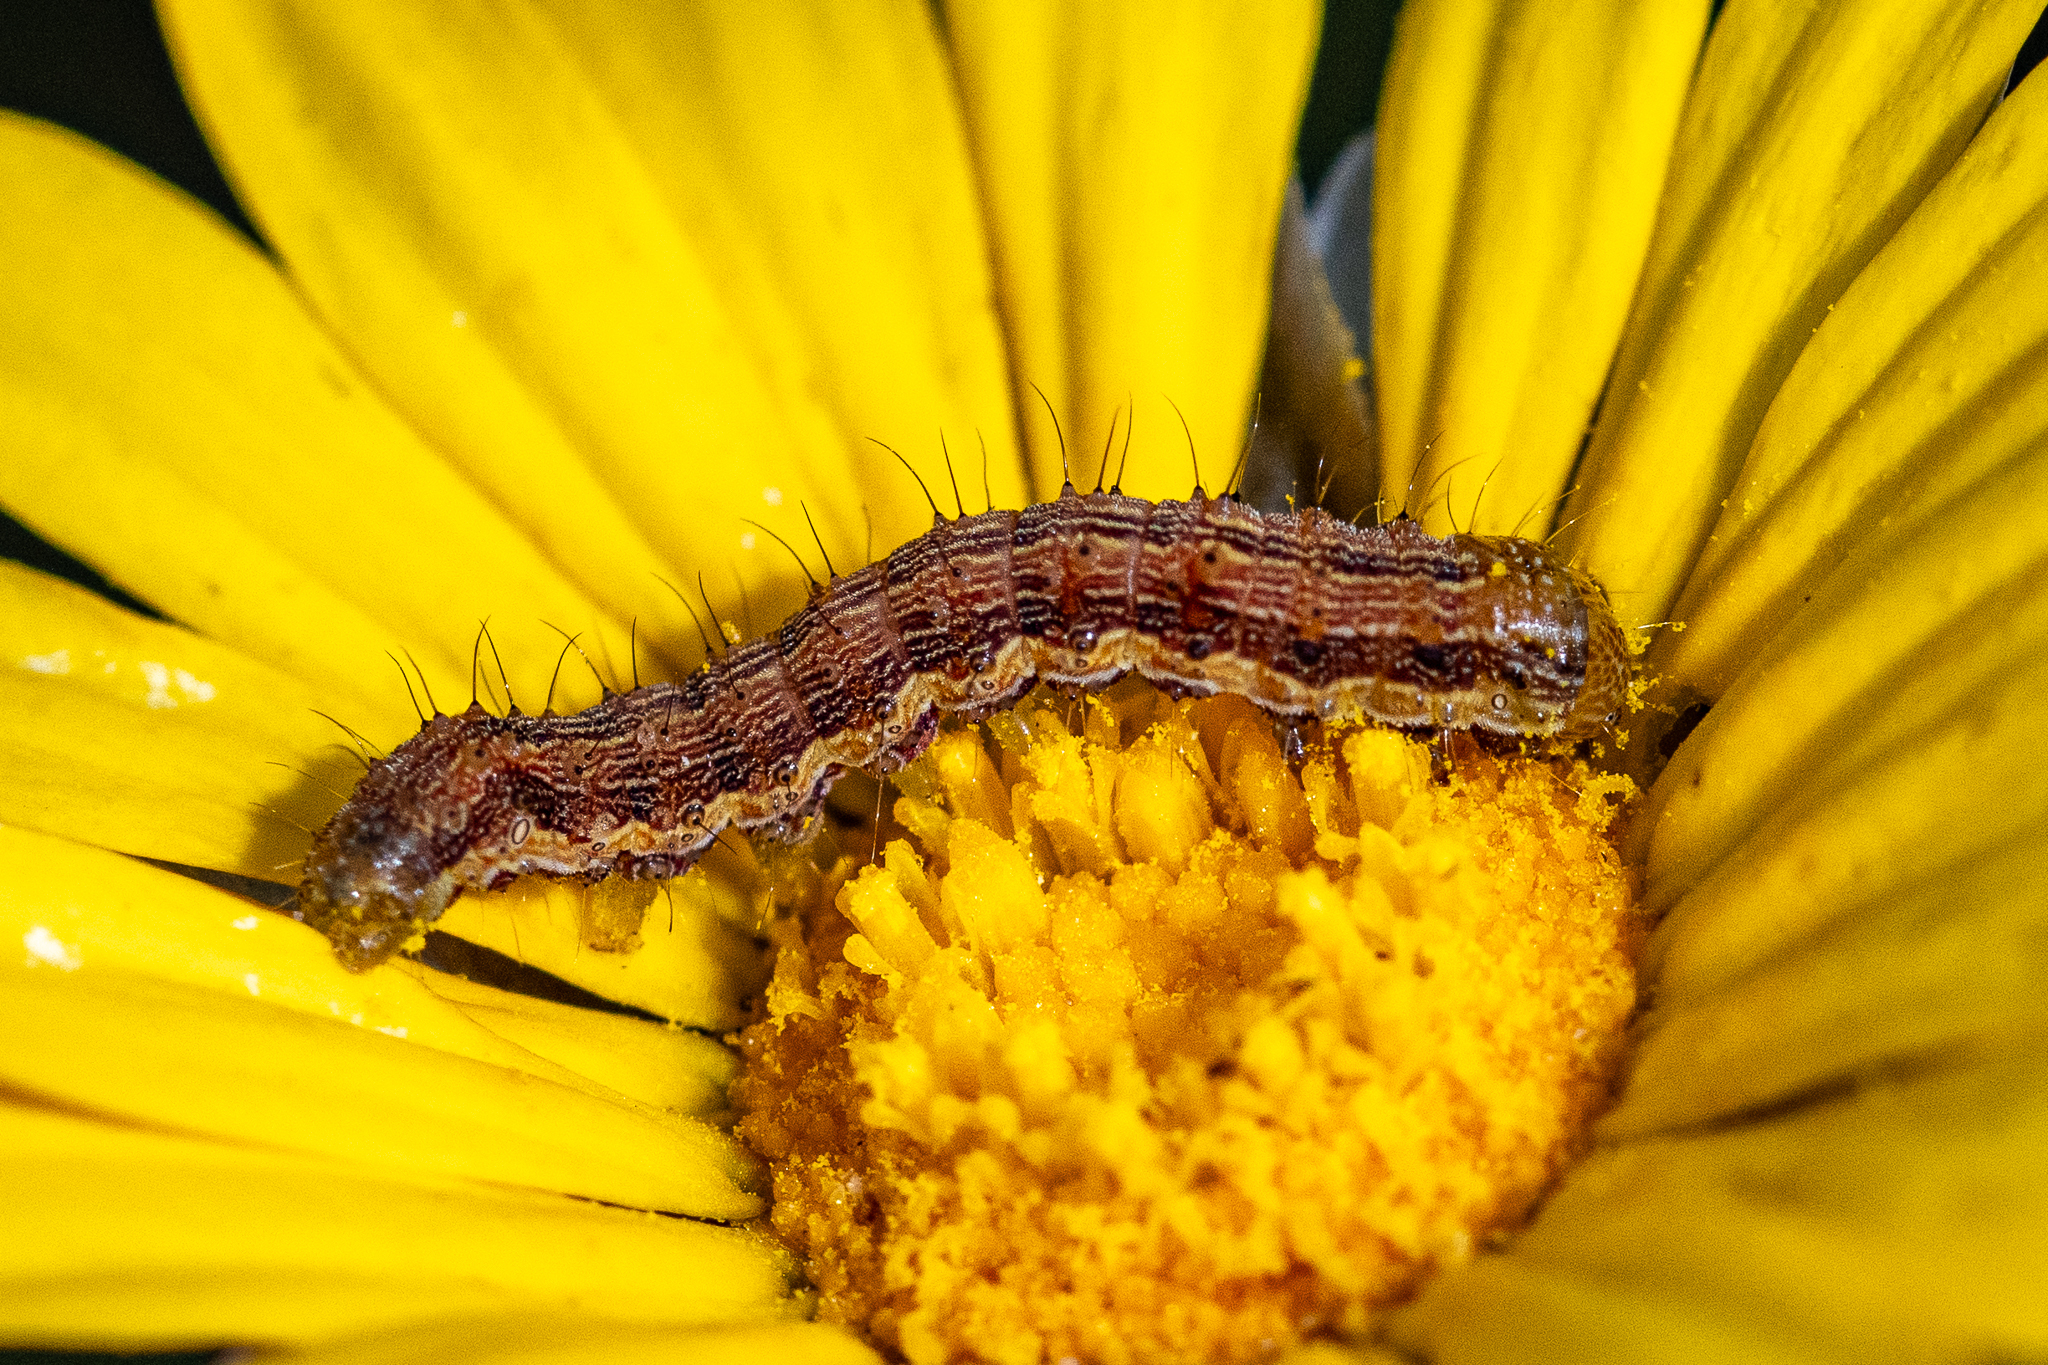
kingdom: Animalia
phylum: Arthropoda
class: Insecta
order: Lepidoptera
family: Noctuidae
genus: Helicoverpa
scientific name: Helicoverpa armigera
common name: Cotton bollworm
